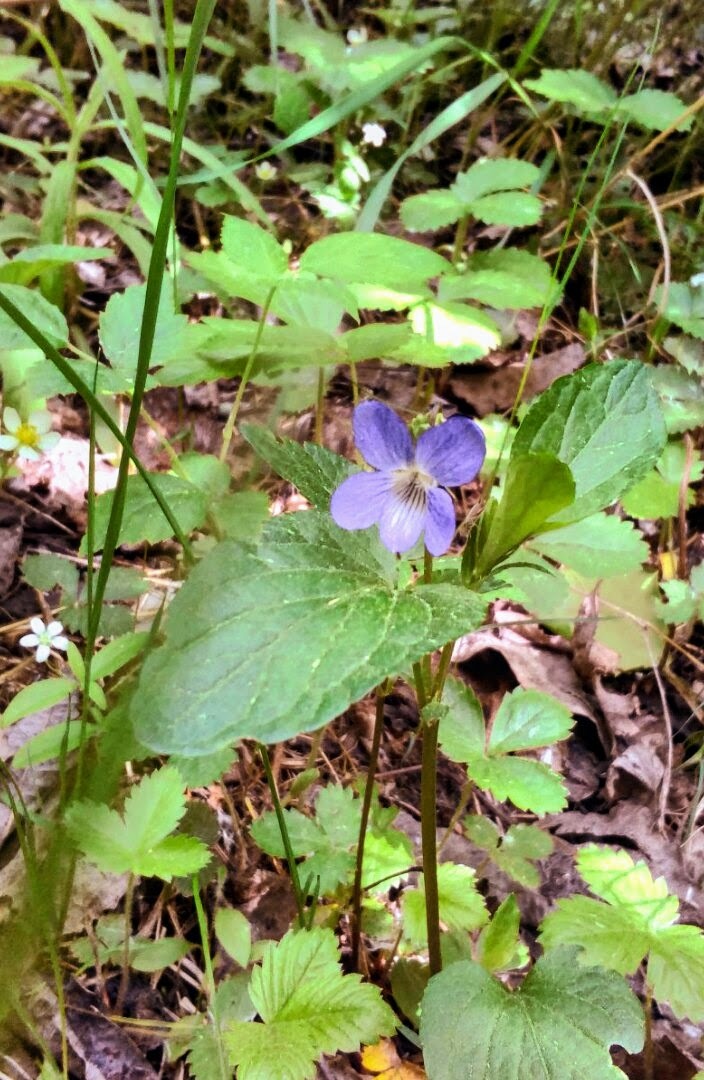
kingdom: Plantae
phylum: Tracheophyta
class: Magnoliopsida
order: Malpighiales
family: Violaceae
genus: Viola
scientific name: Viola
